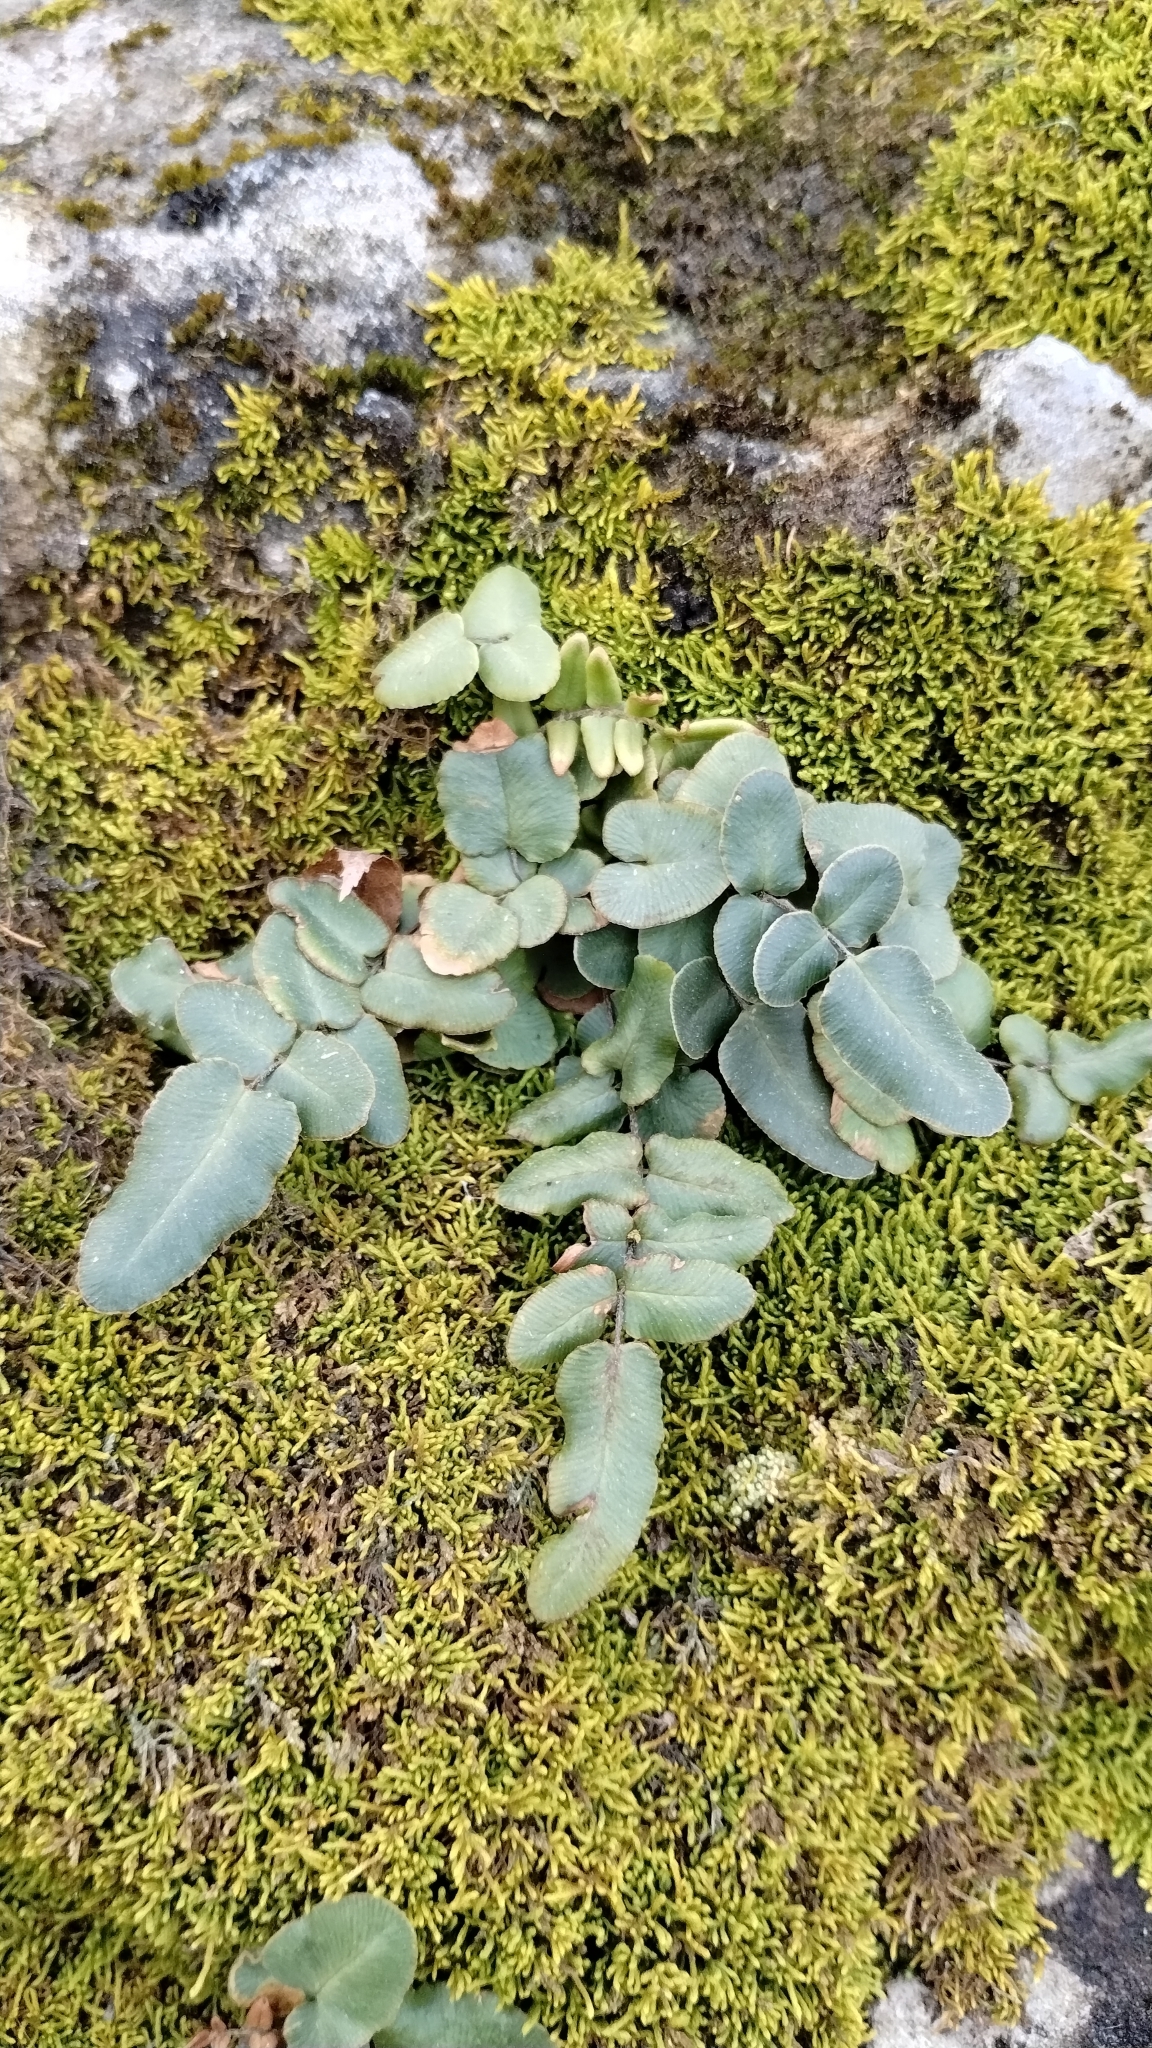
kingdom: Plantae
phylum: Tracheophyta
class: Polypodiopsida
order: Polypodiales
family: Pteridaceae
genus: Pellaea
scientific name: Pellaea atropurpurea
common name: Hairy cliffbrake
